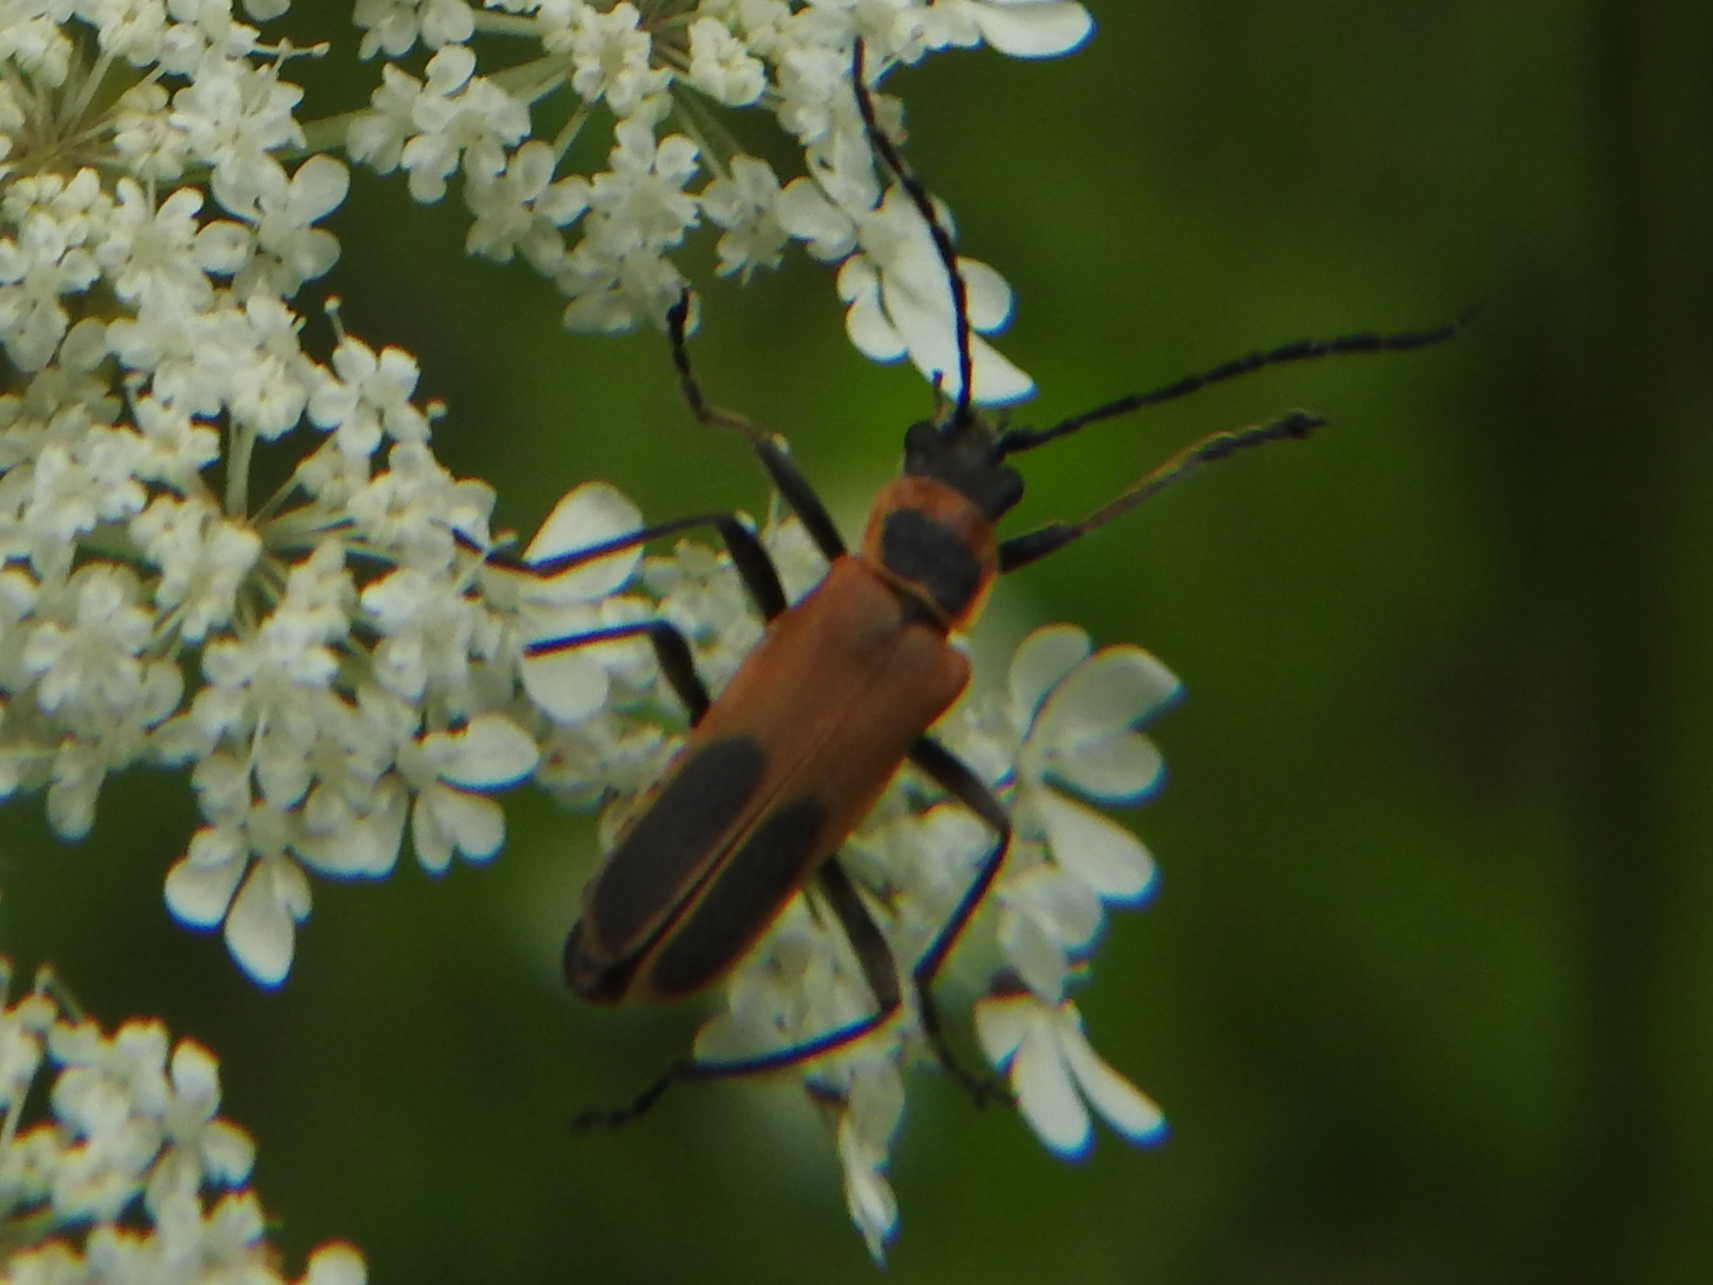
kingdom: Animalia
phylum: Arthropoda
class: Insecta
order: Coleoptera
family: Cantharidae
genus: Chauliognathus
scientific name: Chauliognathus pensylvanicus
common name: Goldenrod soldier beetle
